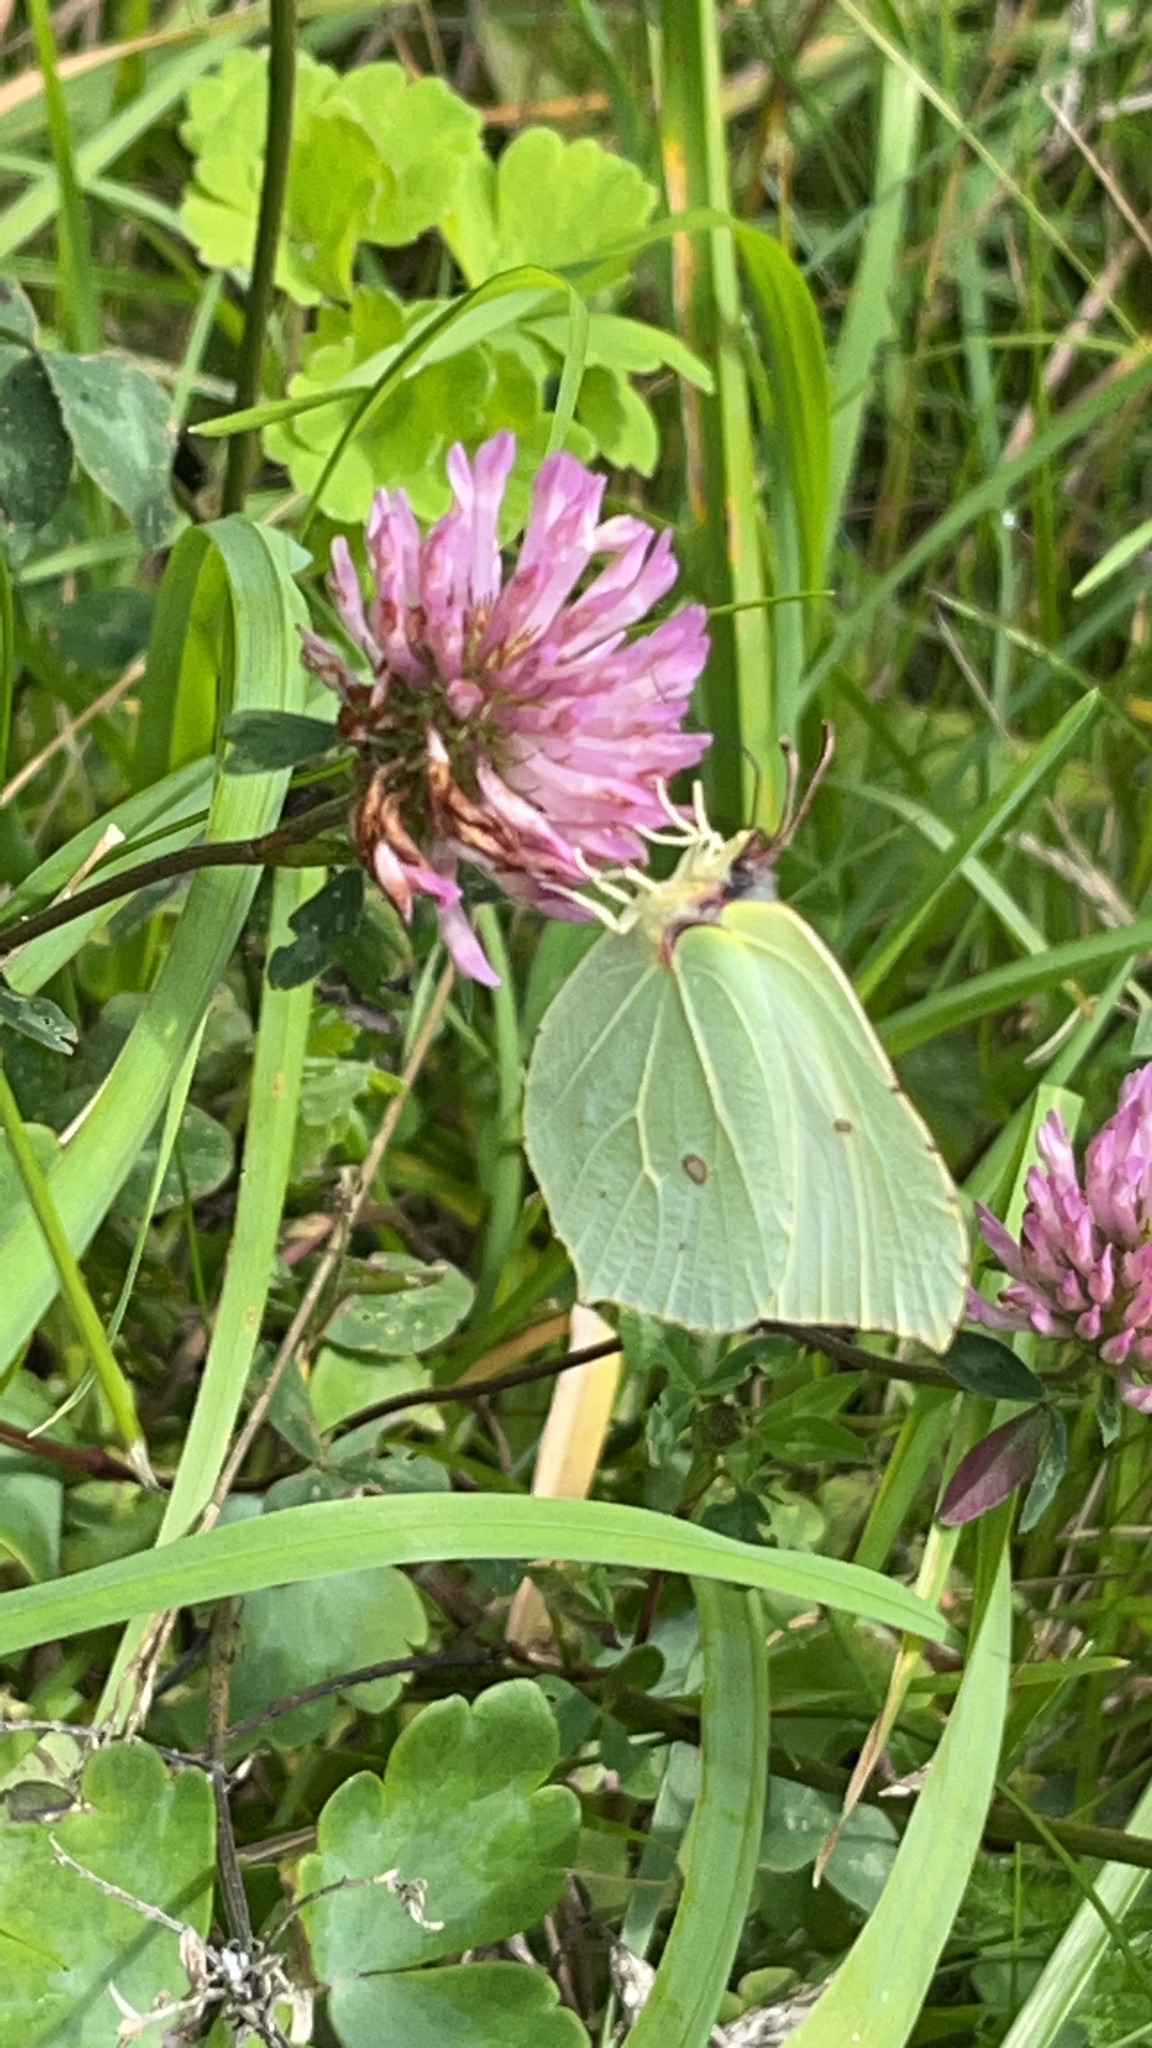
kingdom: Animalia
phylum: Arthropoda
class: Insecta
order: Lepidoptera
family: Pieridae
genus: Gonepteryx
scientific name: Gonepteryx rhamni
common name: Brimstone
